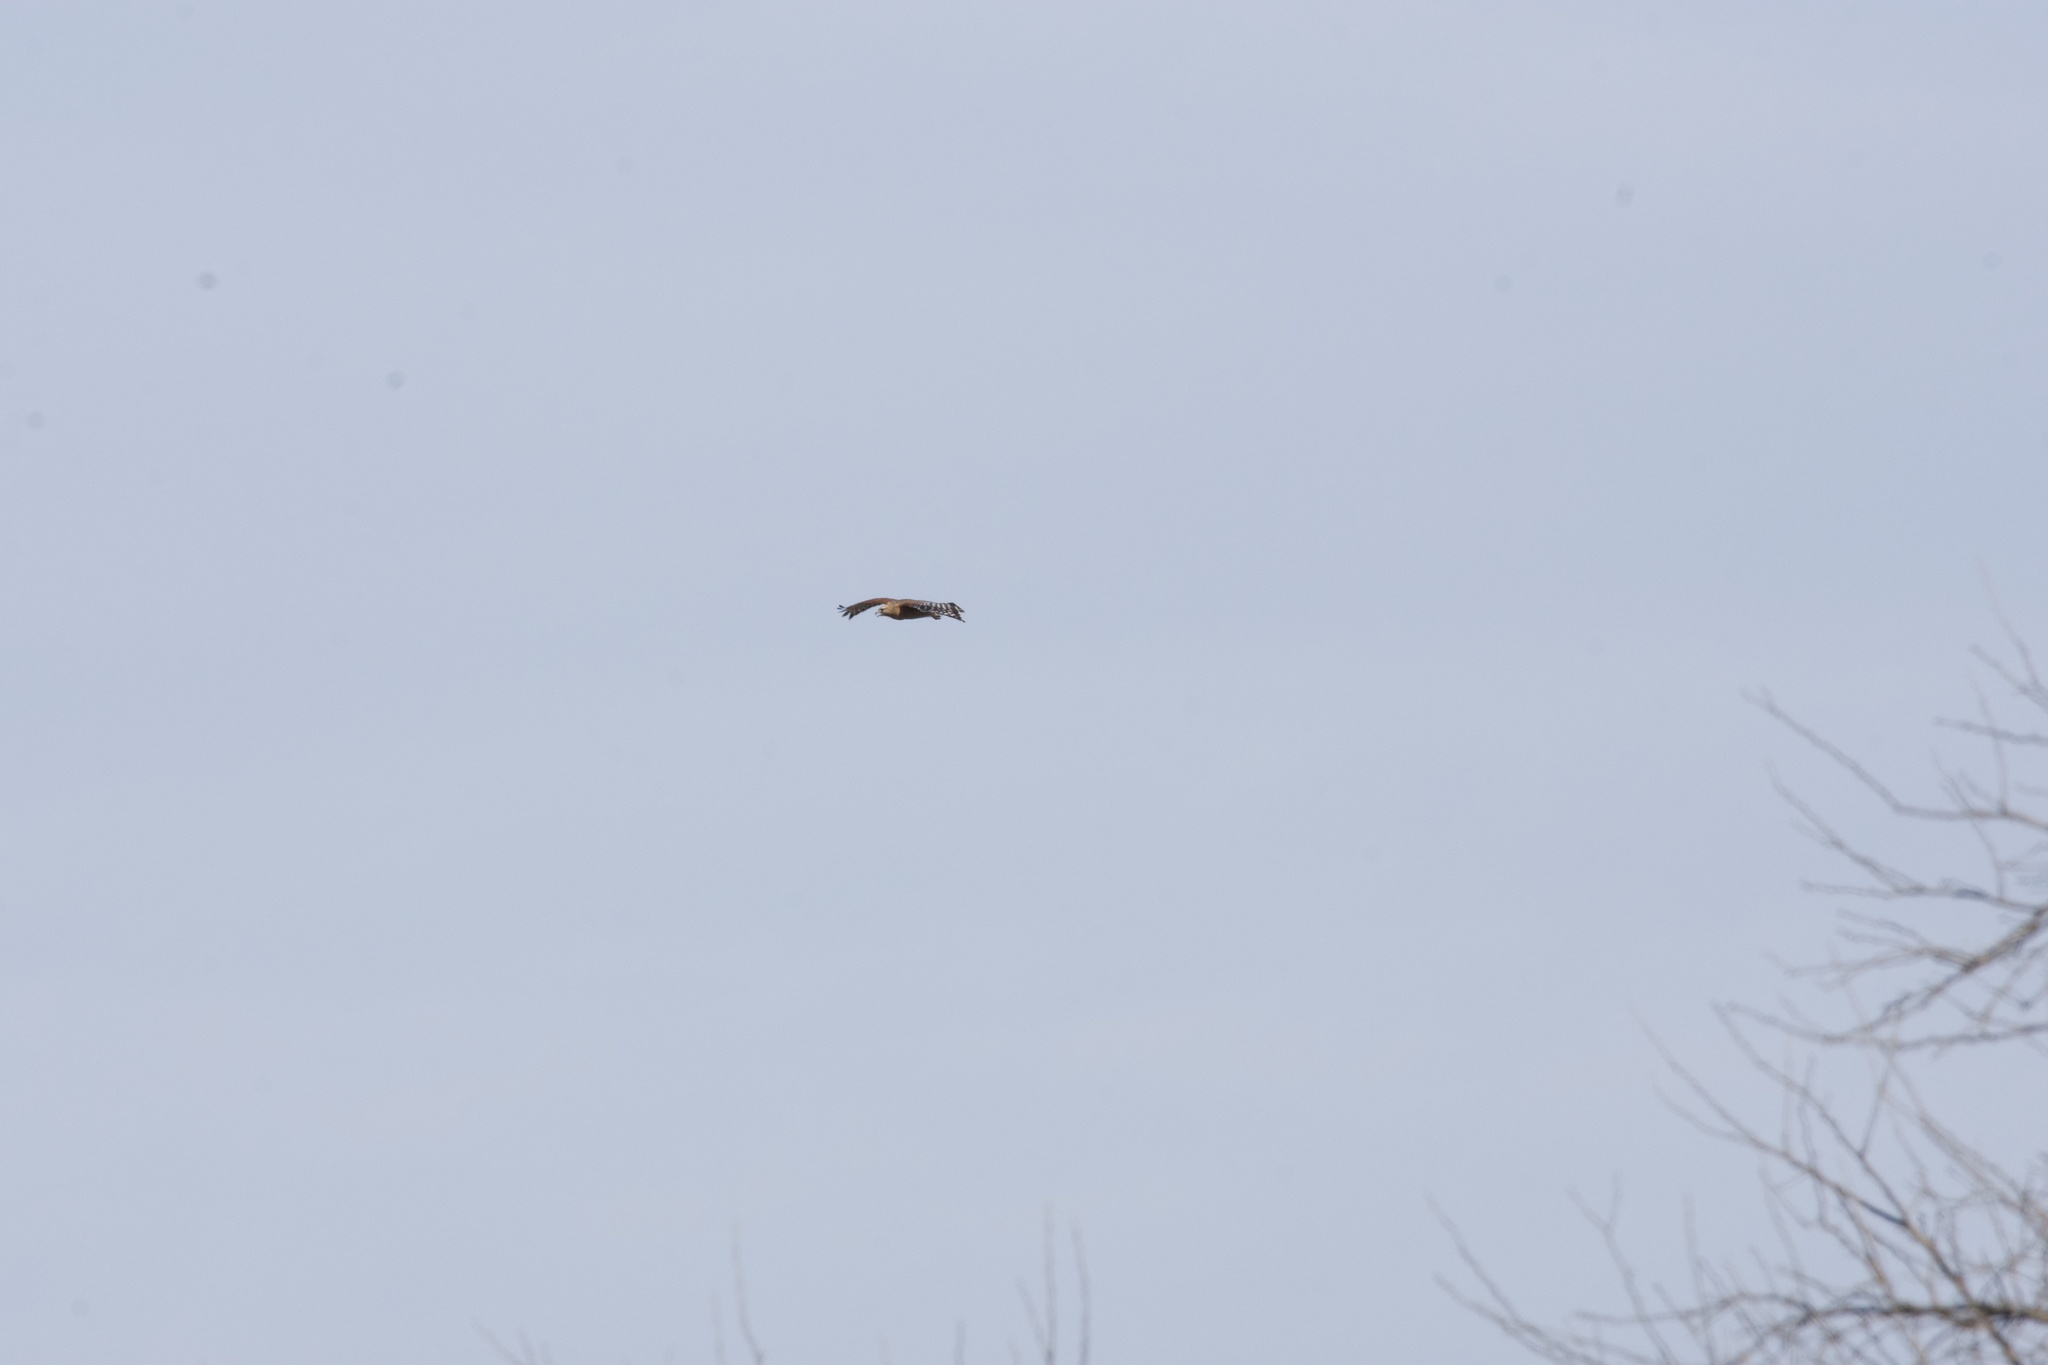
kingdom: Animalia
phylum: Chordata
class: Aves
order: Accipitriformes
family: Accipitridae
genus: Buteo
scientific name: Buteo lineatus
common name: Red-shouldered hawk
